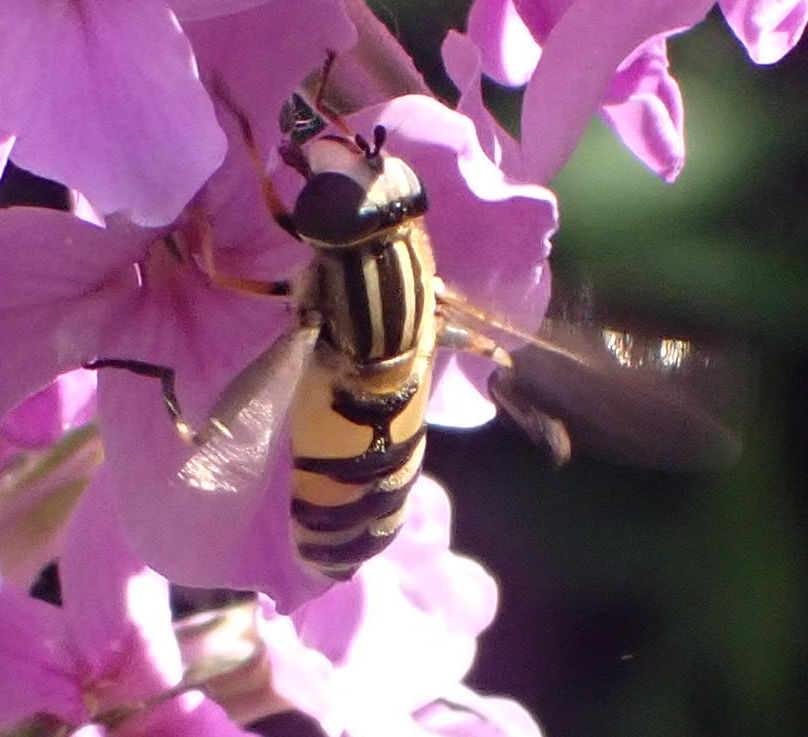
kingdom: Animalia
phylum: Arthropoda
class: Insecta
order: Diptera
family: Syrphidae
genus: Helophilus
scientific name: Helophilus latifrons
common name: Broad-headed marsh fly
